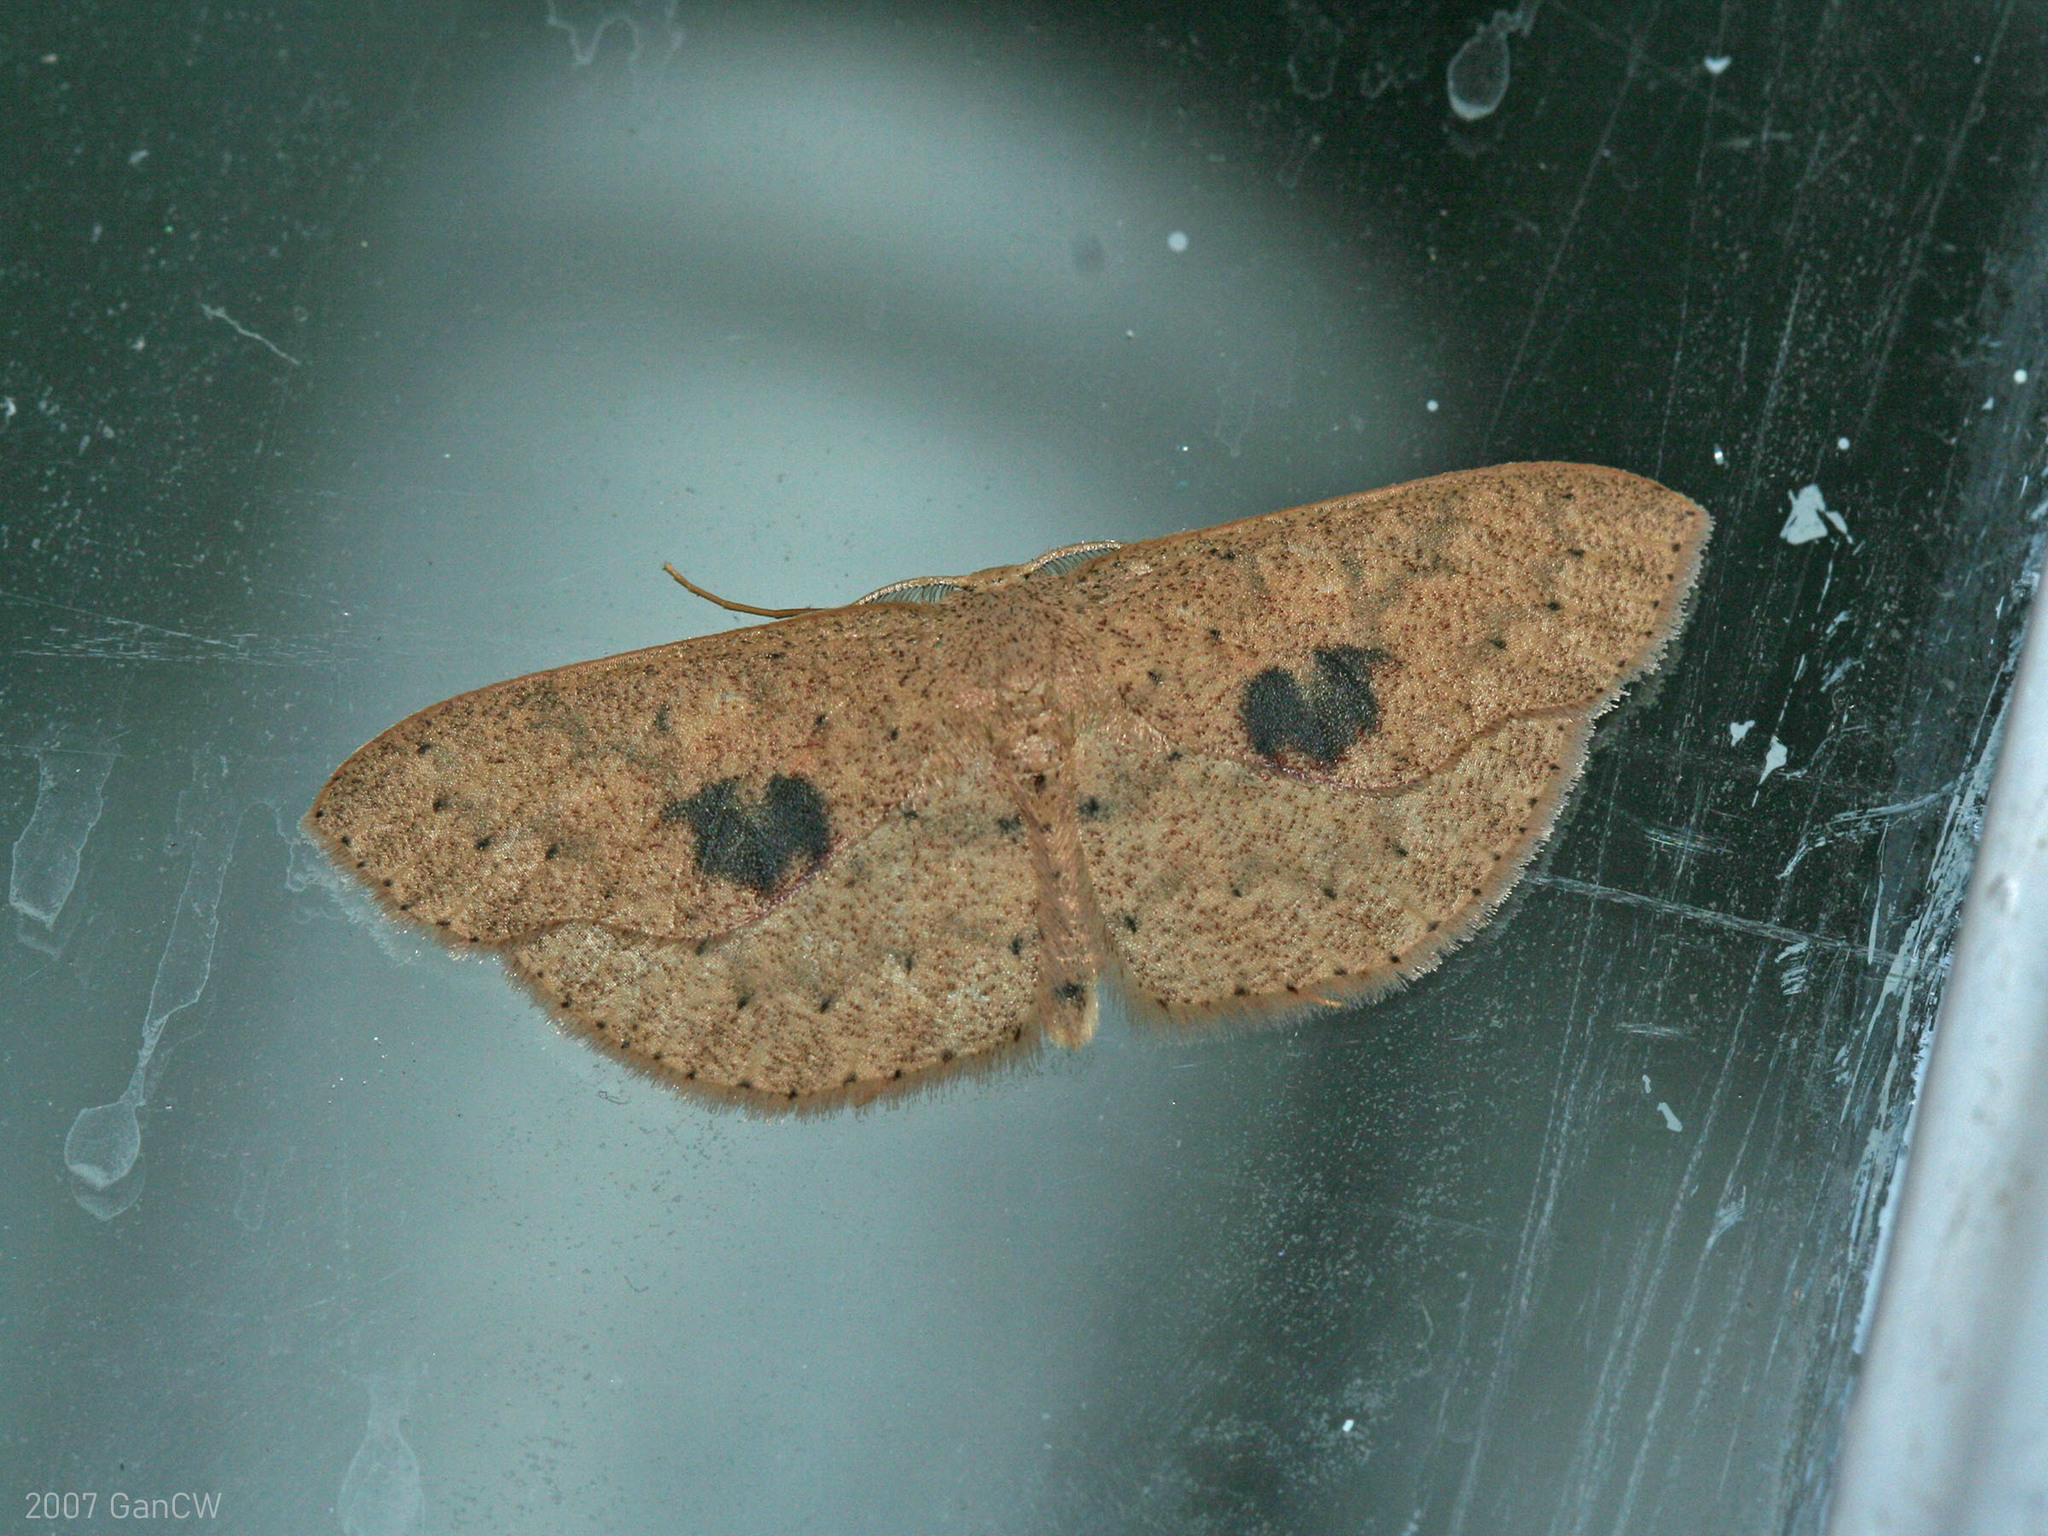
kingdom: Animalia
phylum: Arthropoda
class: Insecta
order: Lepidoptera
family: Geometridae
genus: Cyclophora
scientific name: Cyclophora posticamplum
